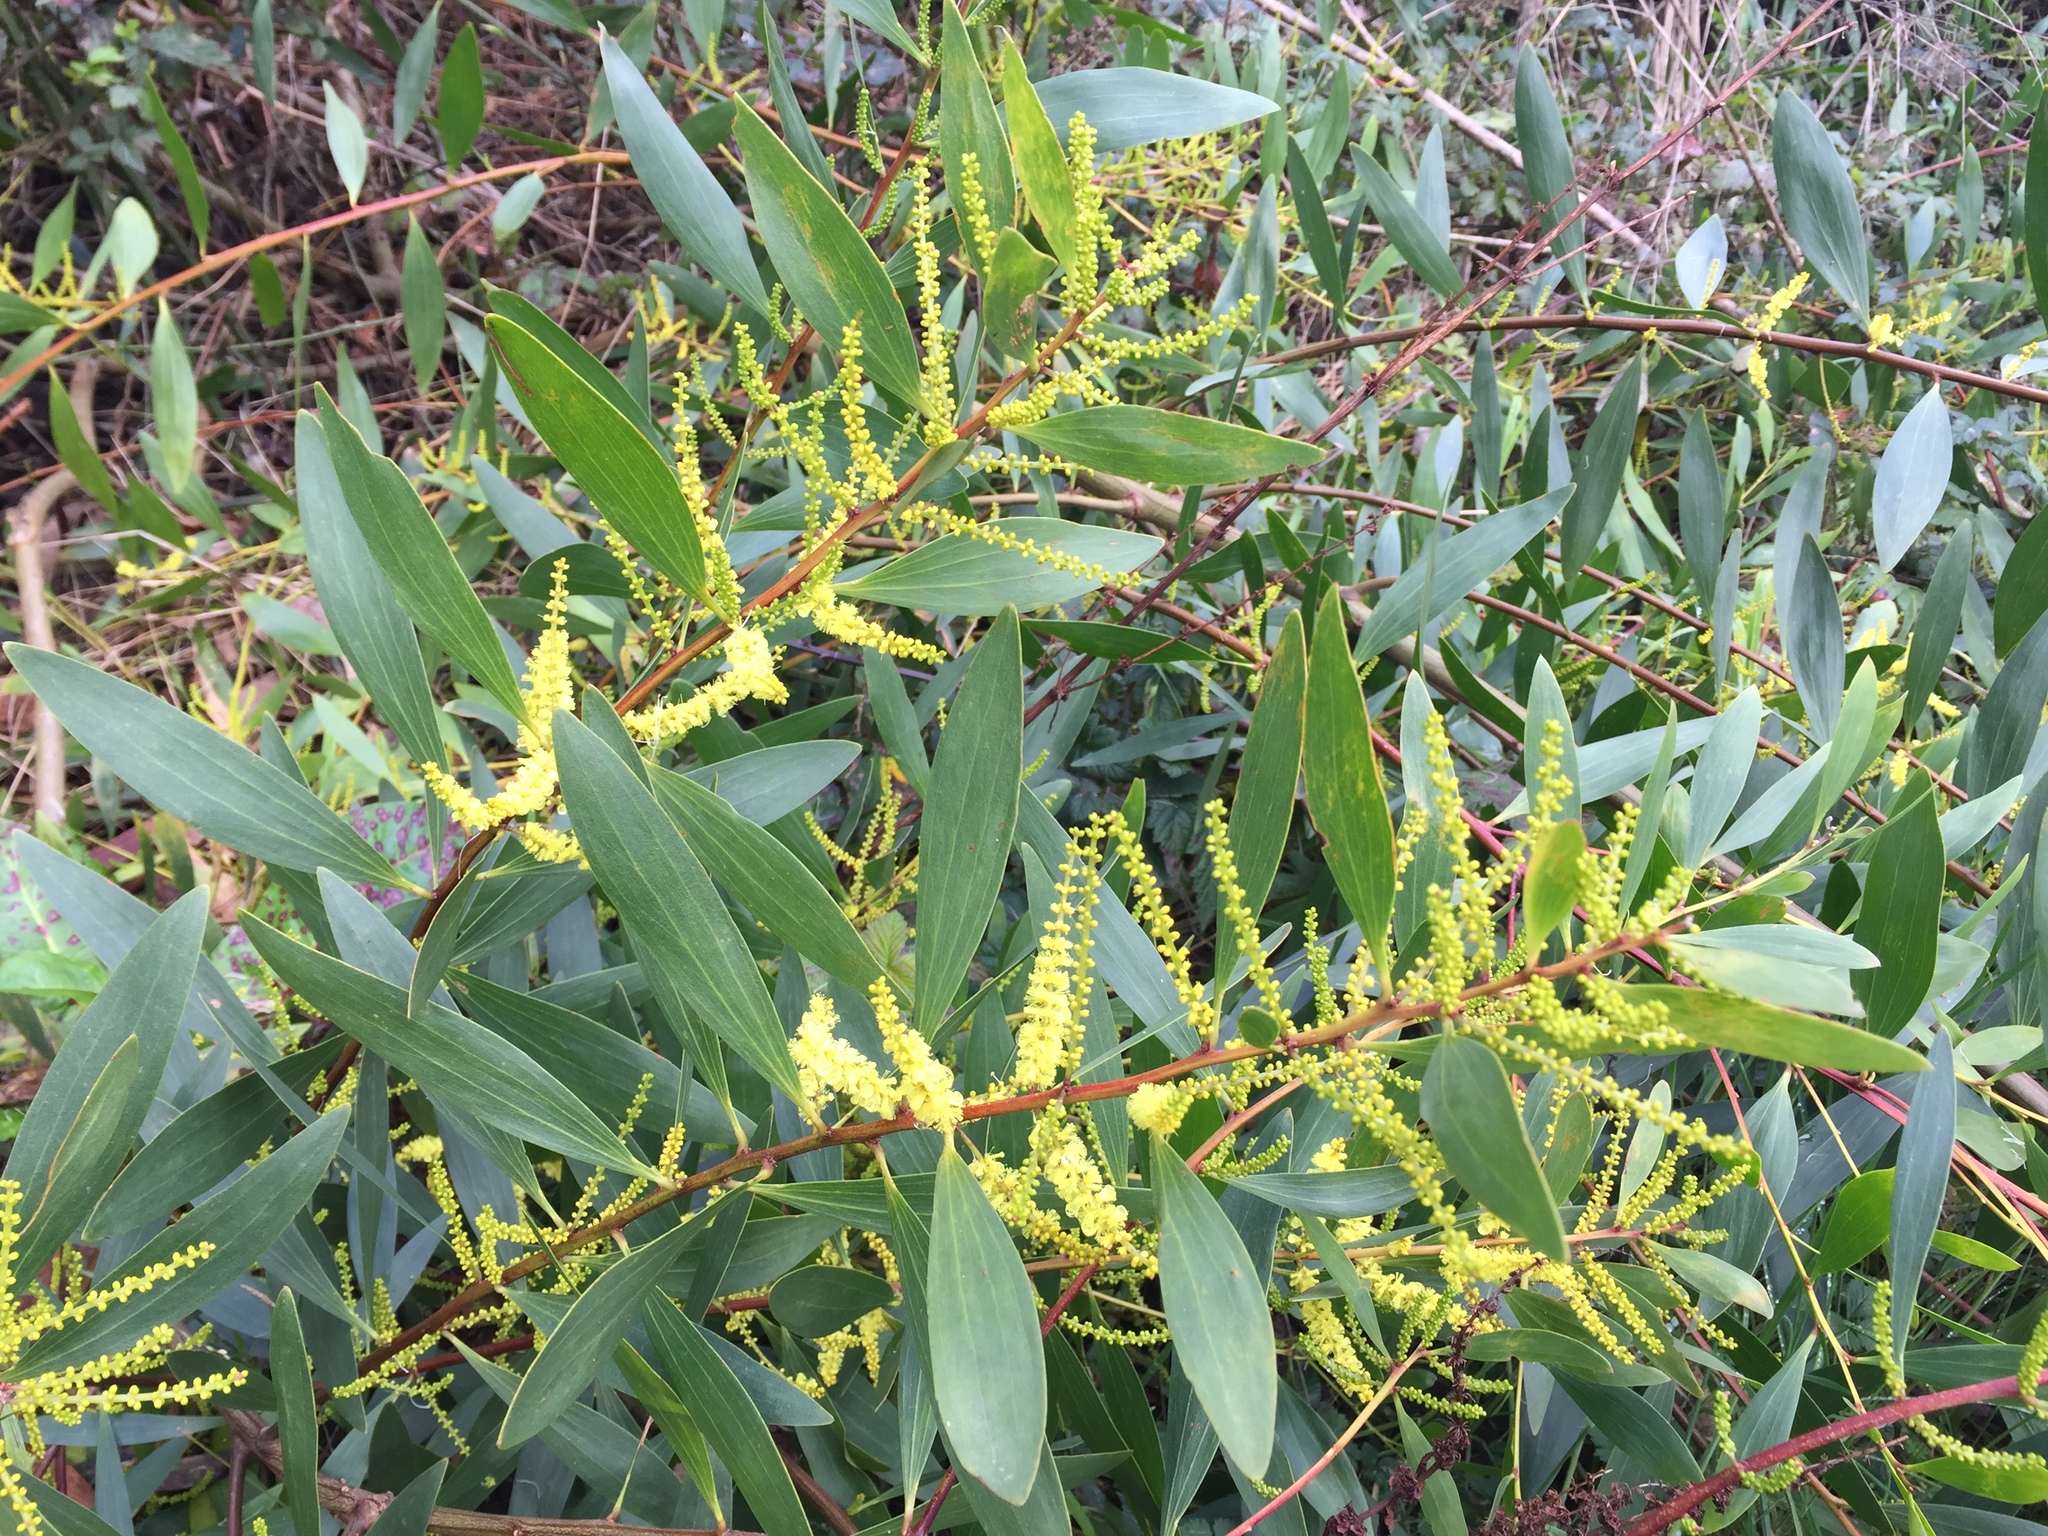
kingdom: Plantae
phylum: Tracheophyta
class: Magnoliopsida
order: Fabales
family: Fabaceae
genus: Acacia
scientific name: Acacia longifolia
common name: Sydney golden wattle
